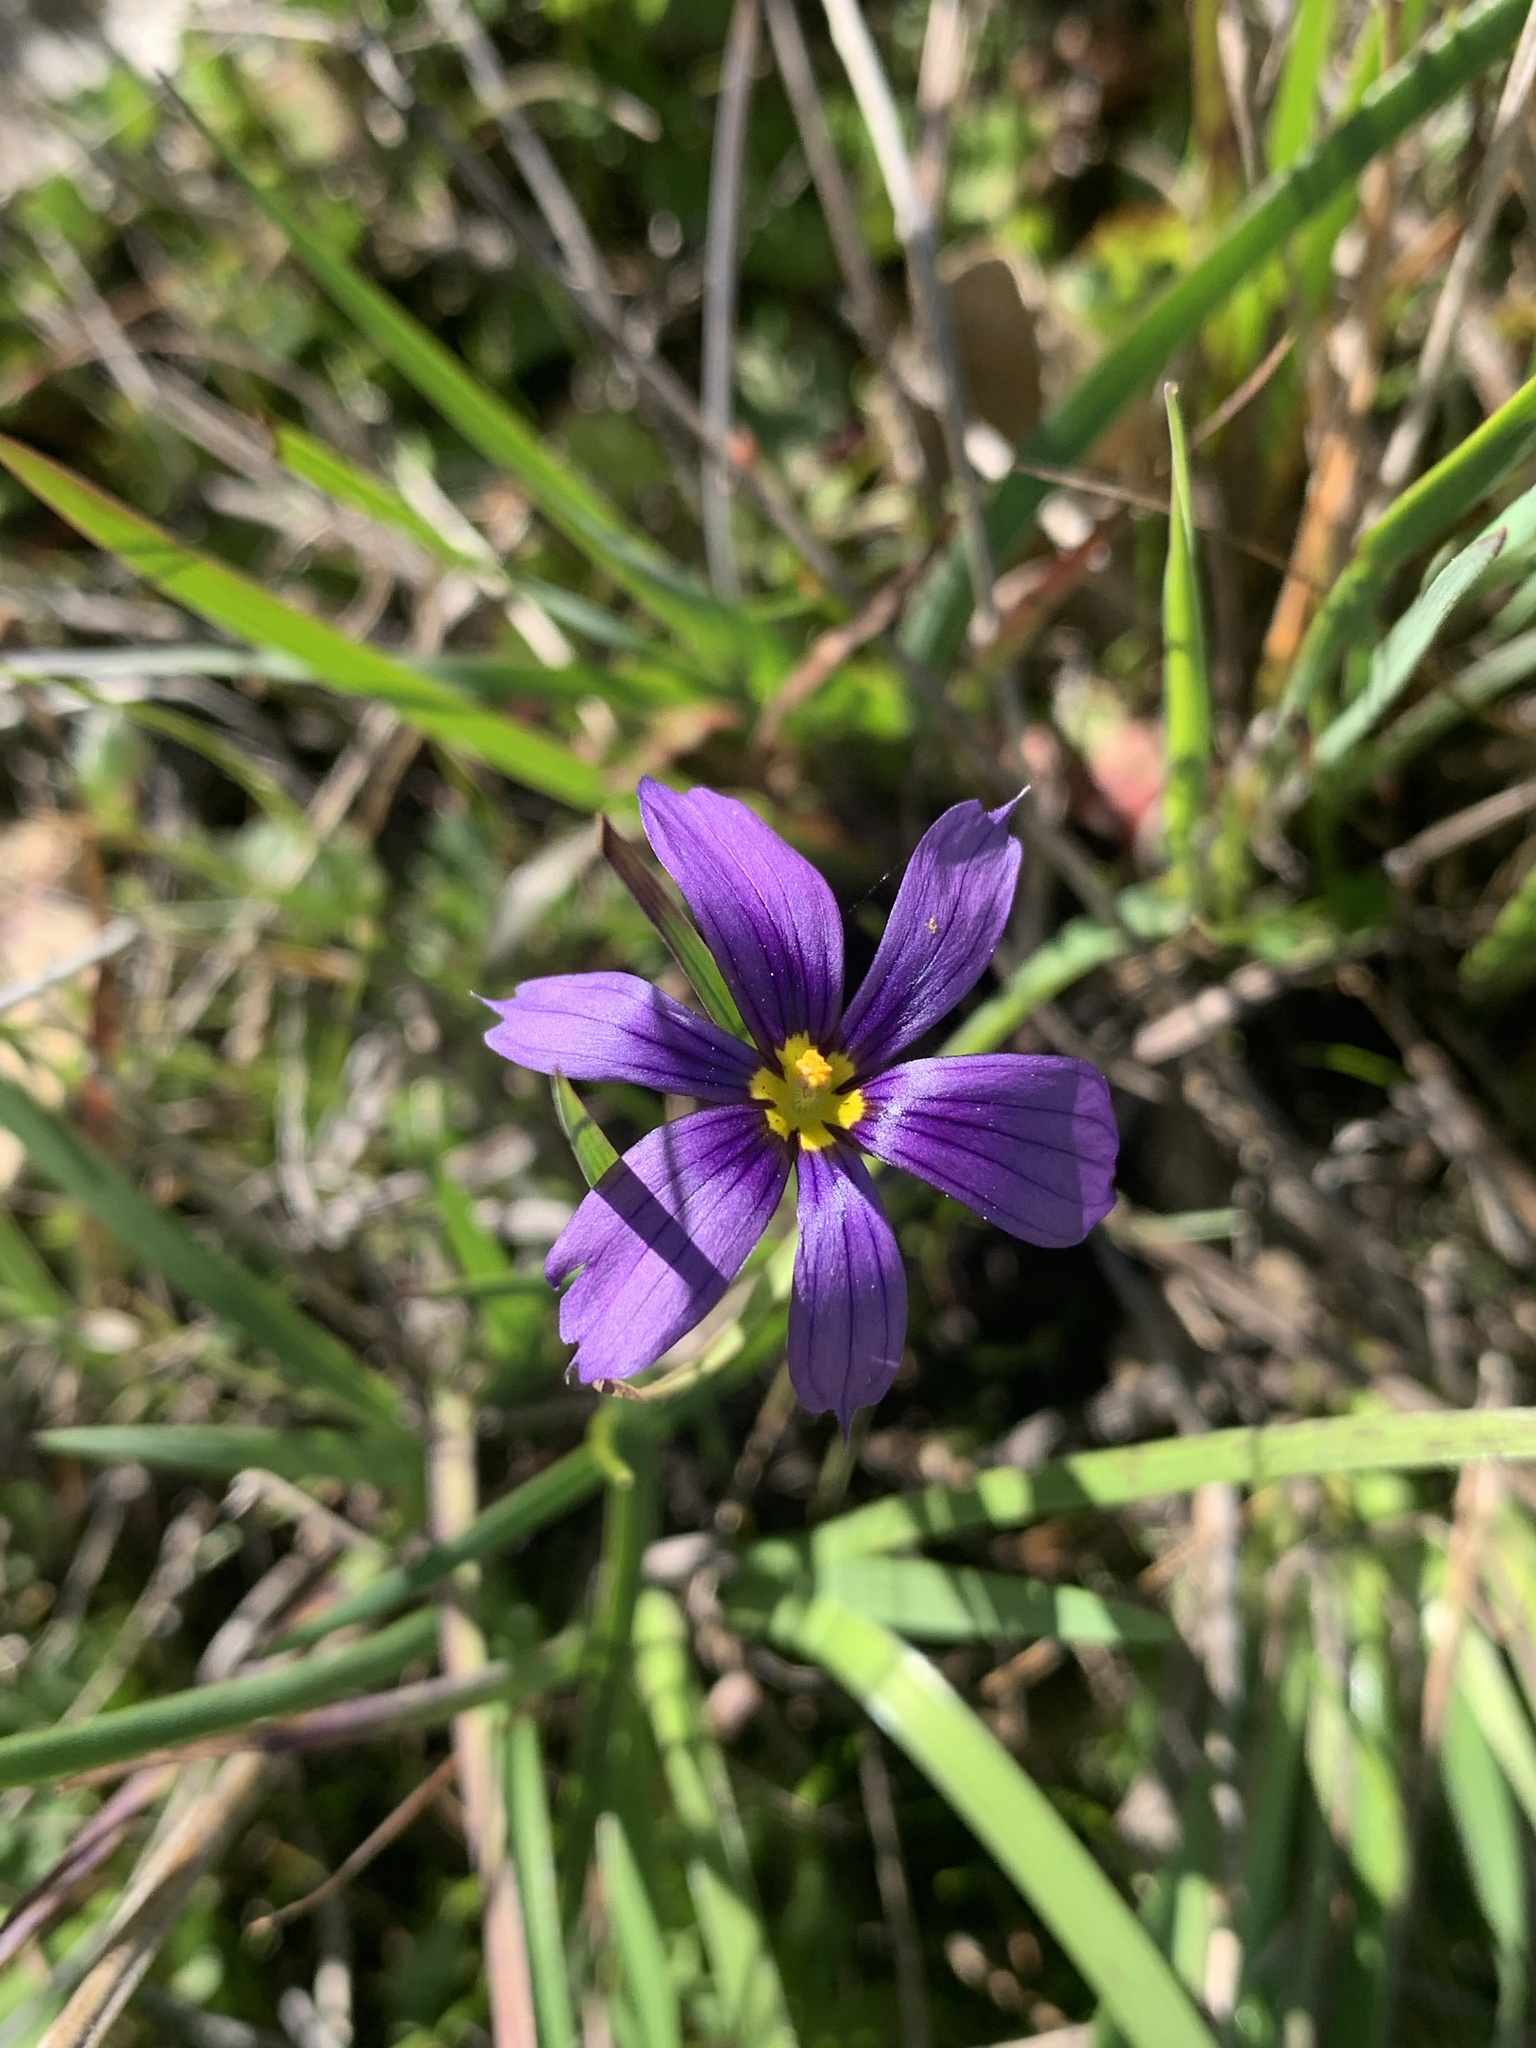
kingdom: Plantae
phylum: Tracheophyta
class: Liliopsida
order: Asparagales
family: Iridaceae
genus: Sisyrinchium
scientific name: Sisyrinchium bellum
